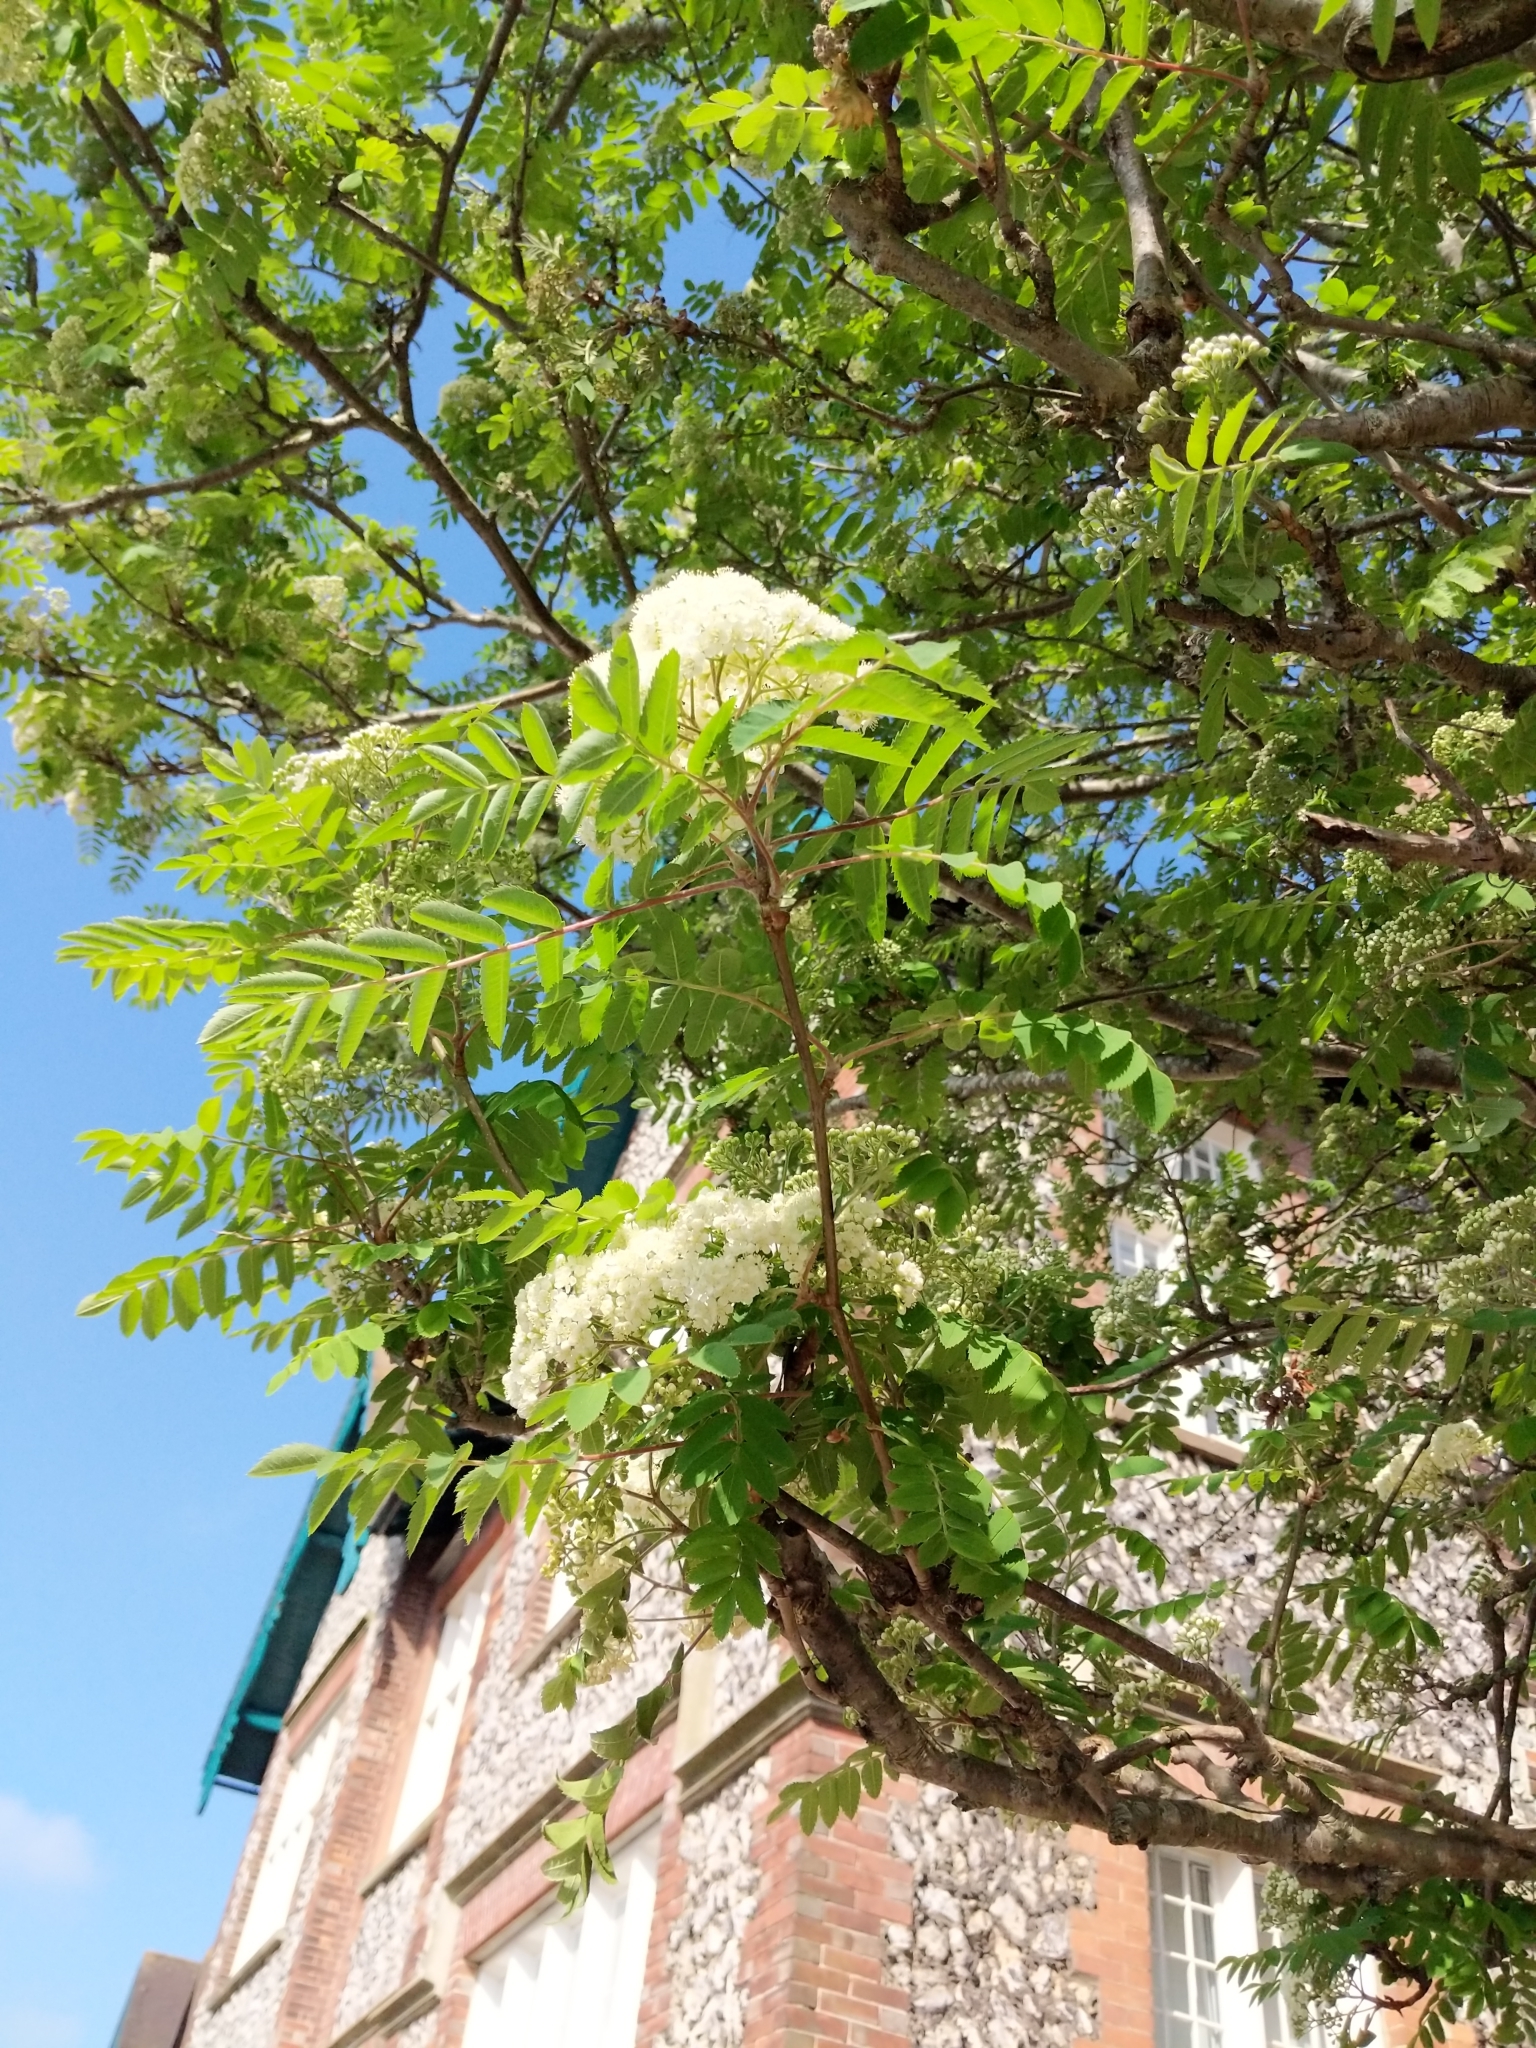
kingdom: Plantae
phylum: Tracheophyta
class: Magnoliopsida
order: Rosales
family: Rosaceae
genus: Sorbus
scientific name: Sorbus aucuparia
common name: Rowan
